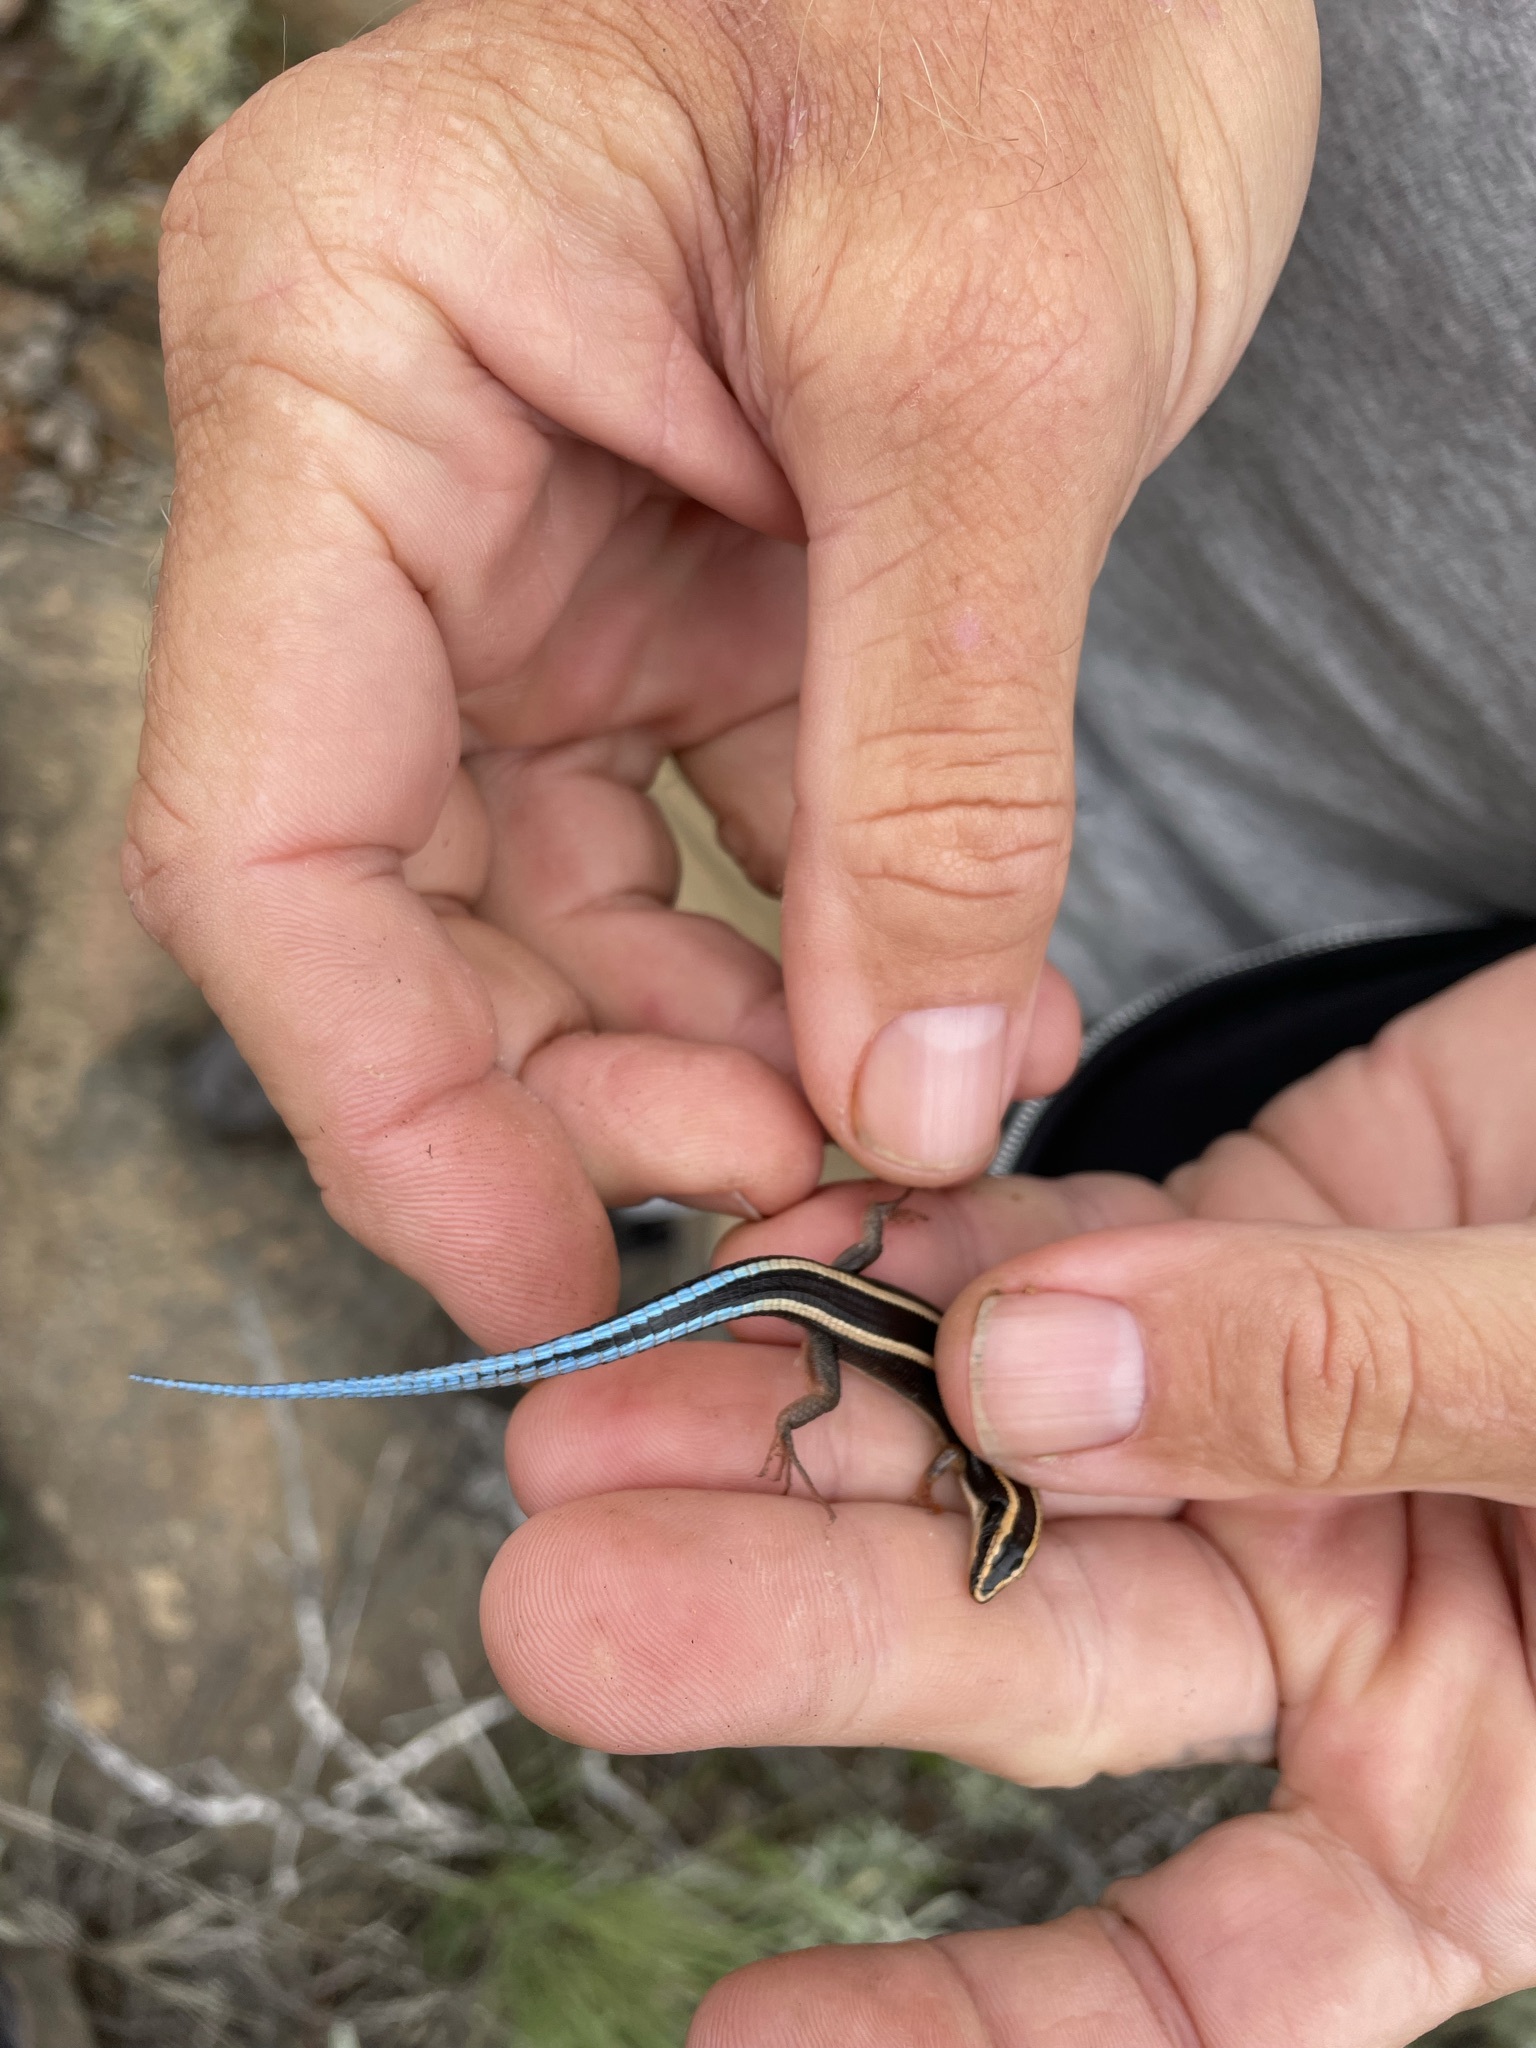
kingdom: Animalia
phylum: Chordata
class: Squamata
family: Gerrhosauridae
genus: Cordylosaurus
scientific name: Cordylosaurus subtessellatus
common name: Dwarf plated lizard
